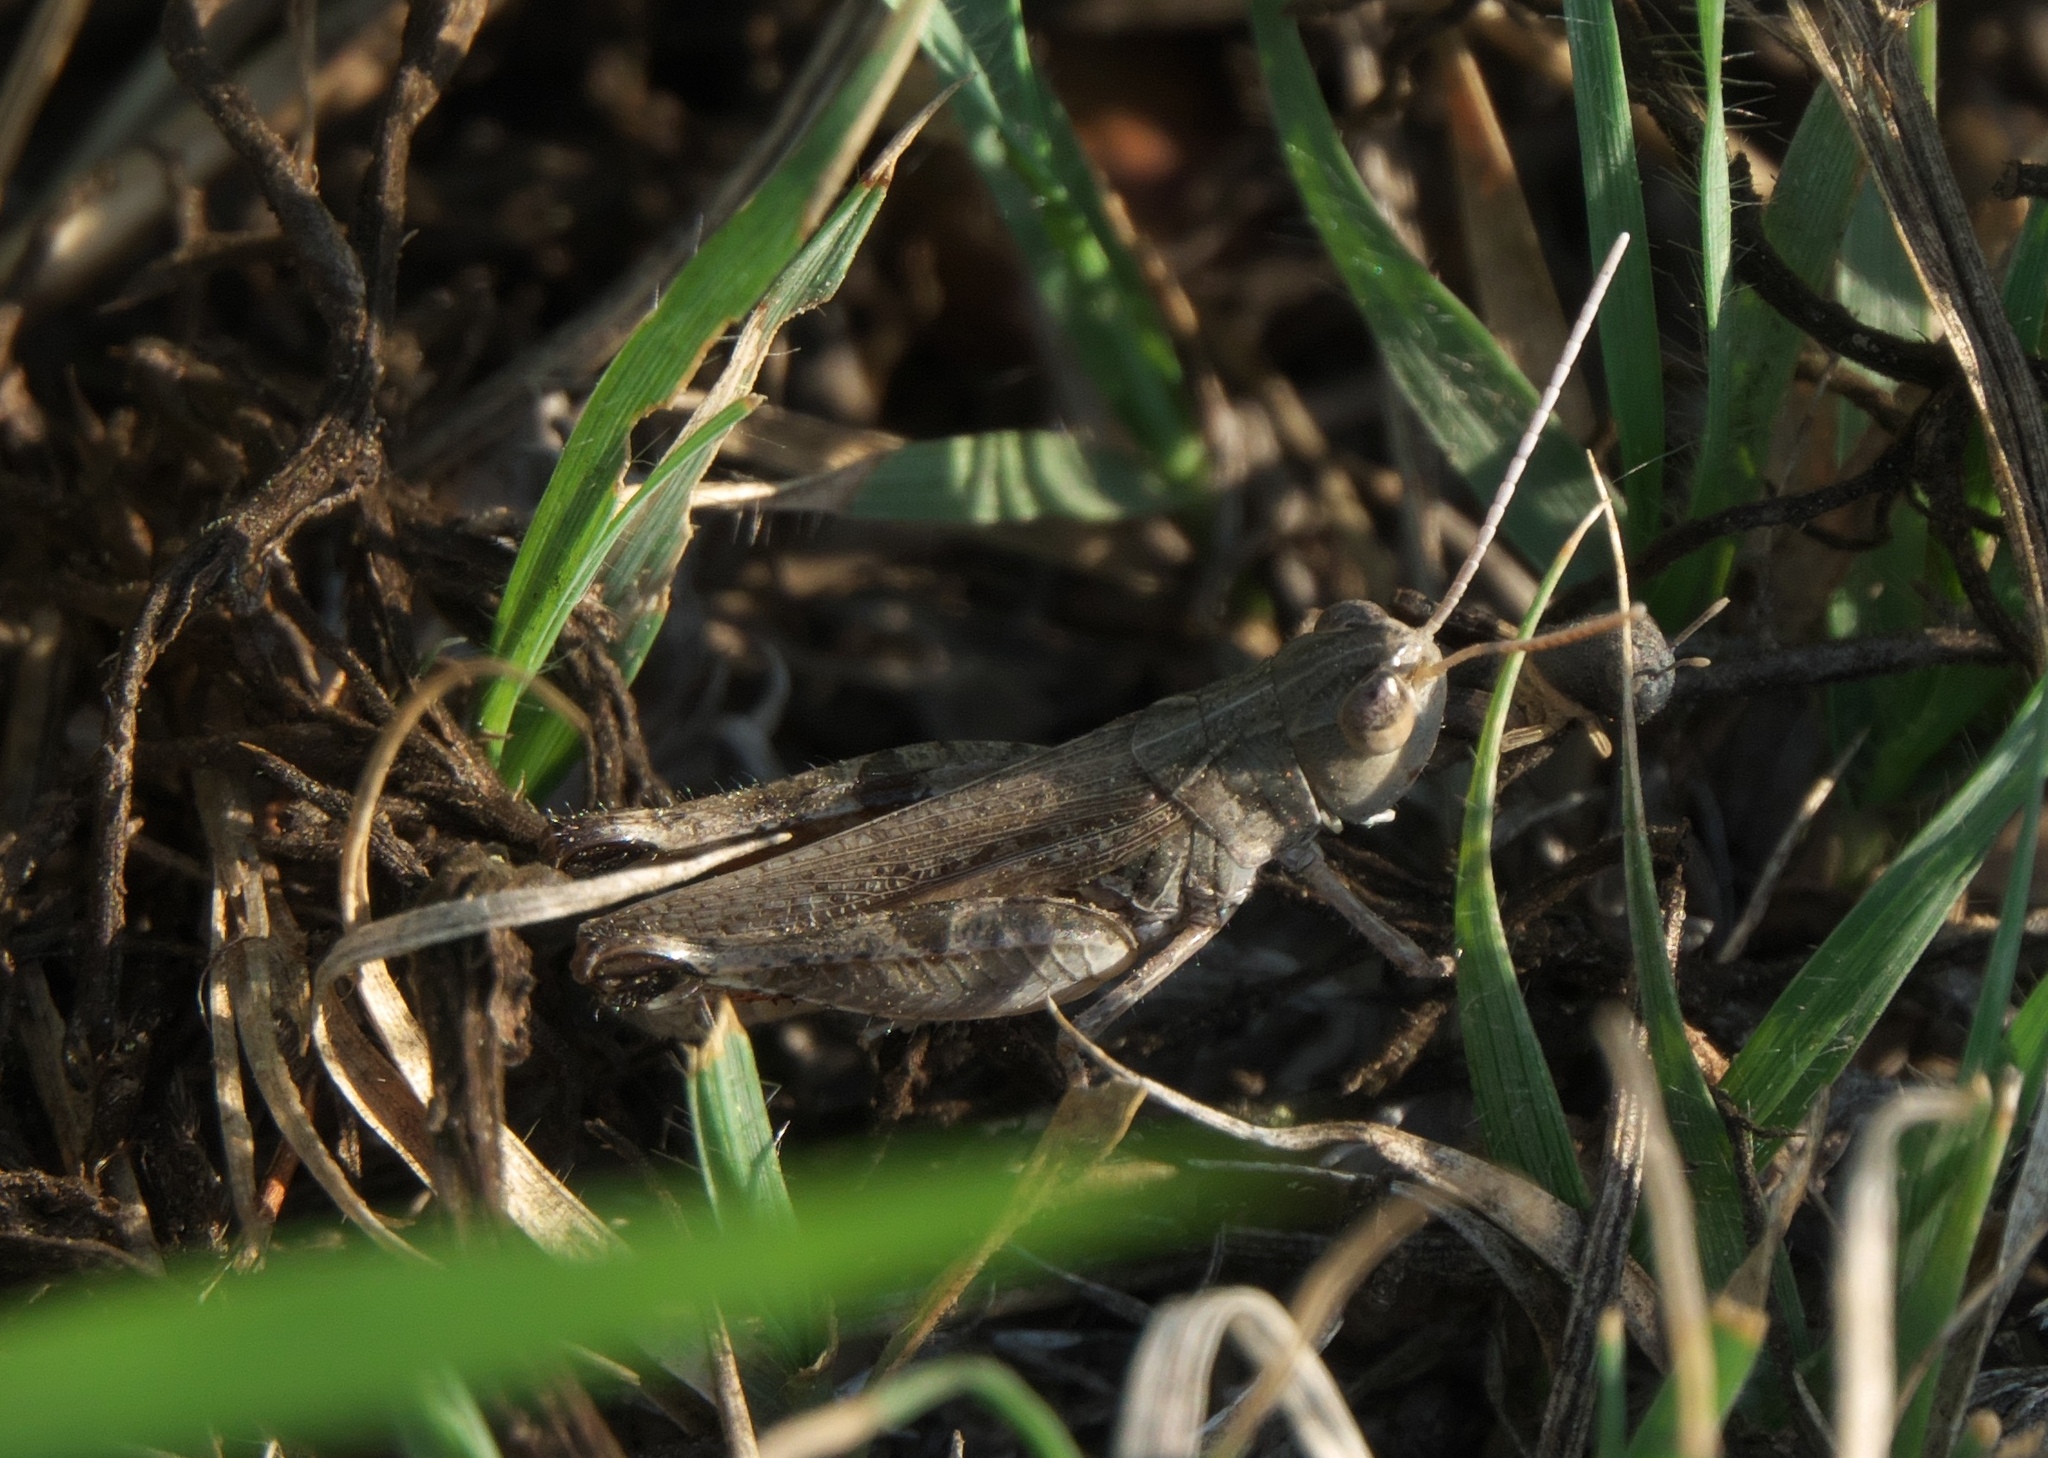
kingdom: Animalia
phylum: Arthropoda
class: Insecta
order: Orthoptera
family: Acrididae
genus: Ageneotettix
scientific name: Ageneotettix deorum
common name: White-whiskered grasshopper
